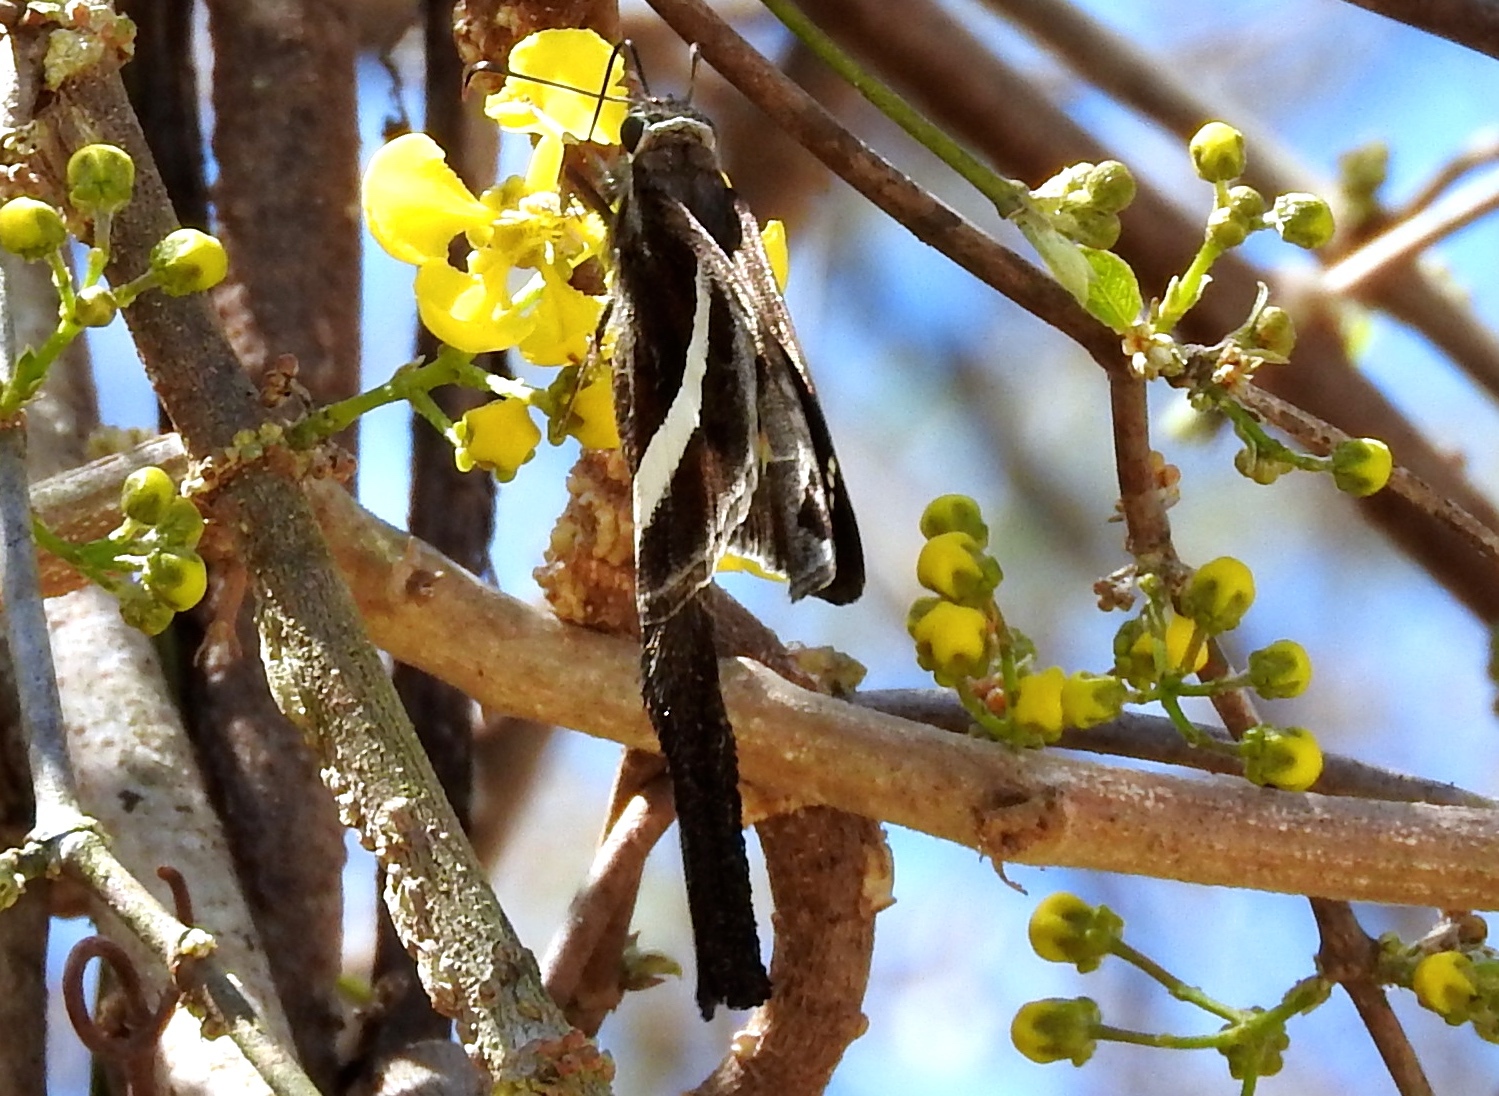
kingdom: Animalia
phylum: Arthropoda
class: Insecta
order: Lepidoptera
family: Hesperiidae
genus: Chioides
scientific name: Chioides catillus
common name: Silverbanded skipper
